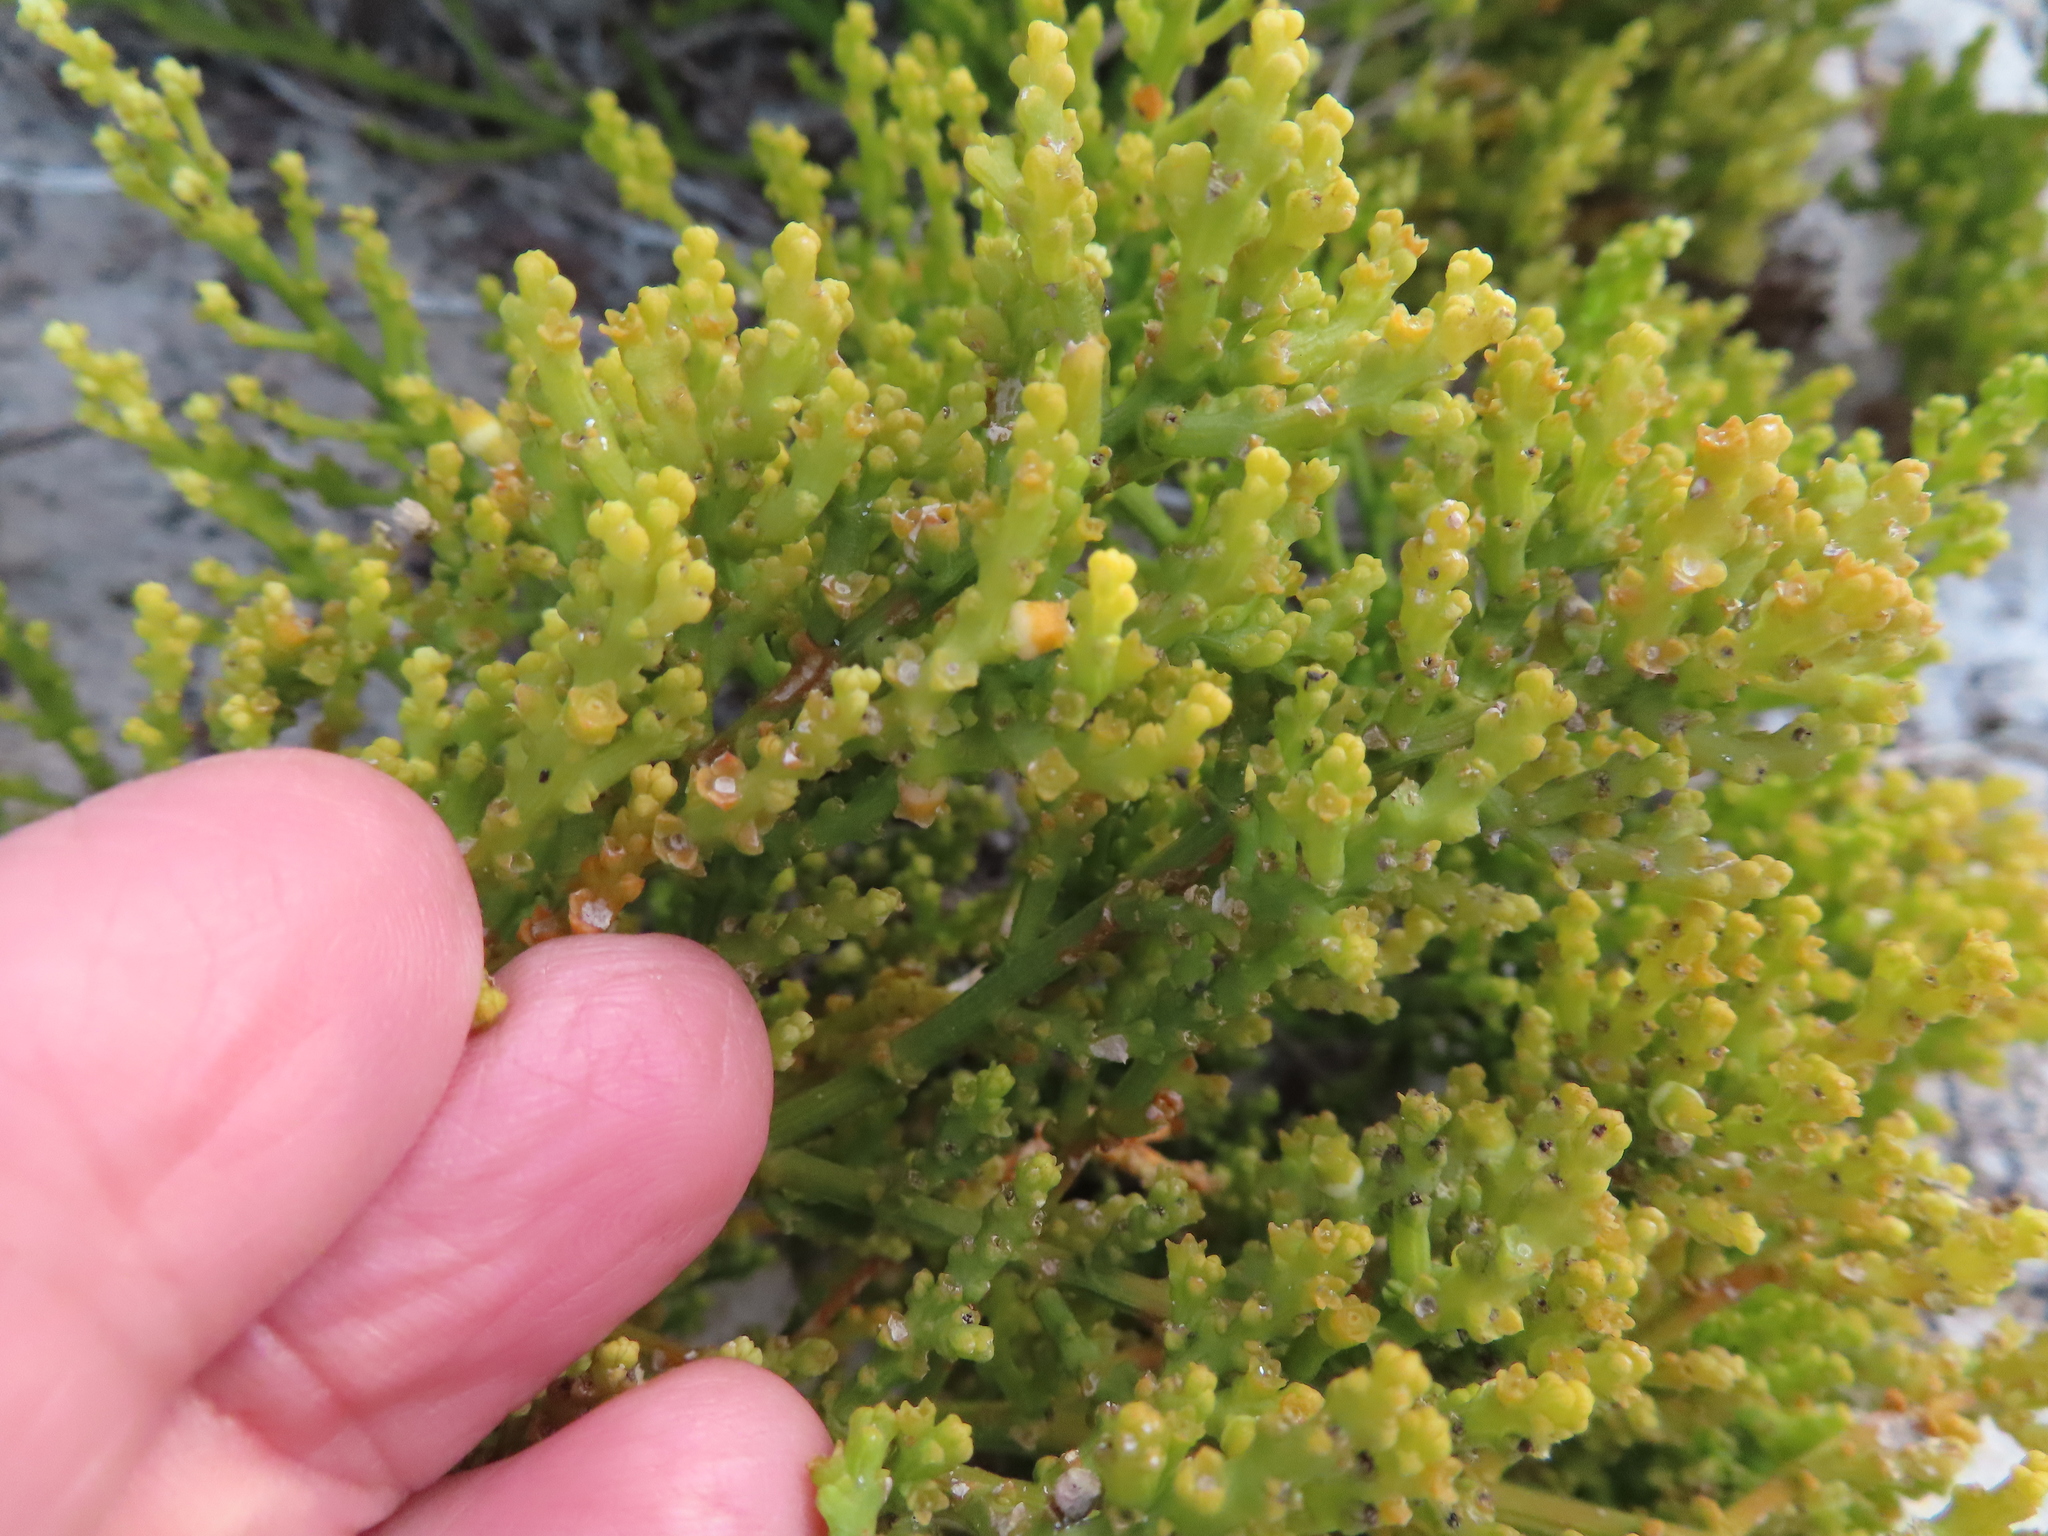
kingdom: Plantae
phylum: Tracheophyta
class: Magnoliopsida
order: Santalales
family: Thesiaceae
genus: Thesium
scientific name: Thesium fragile
